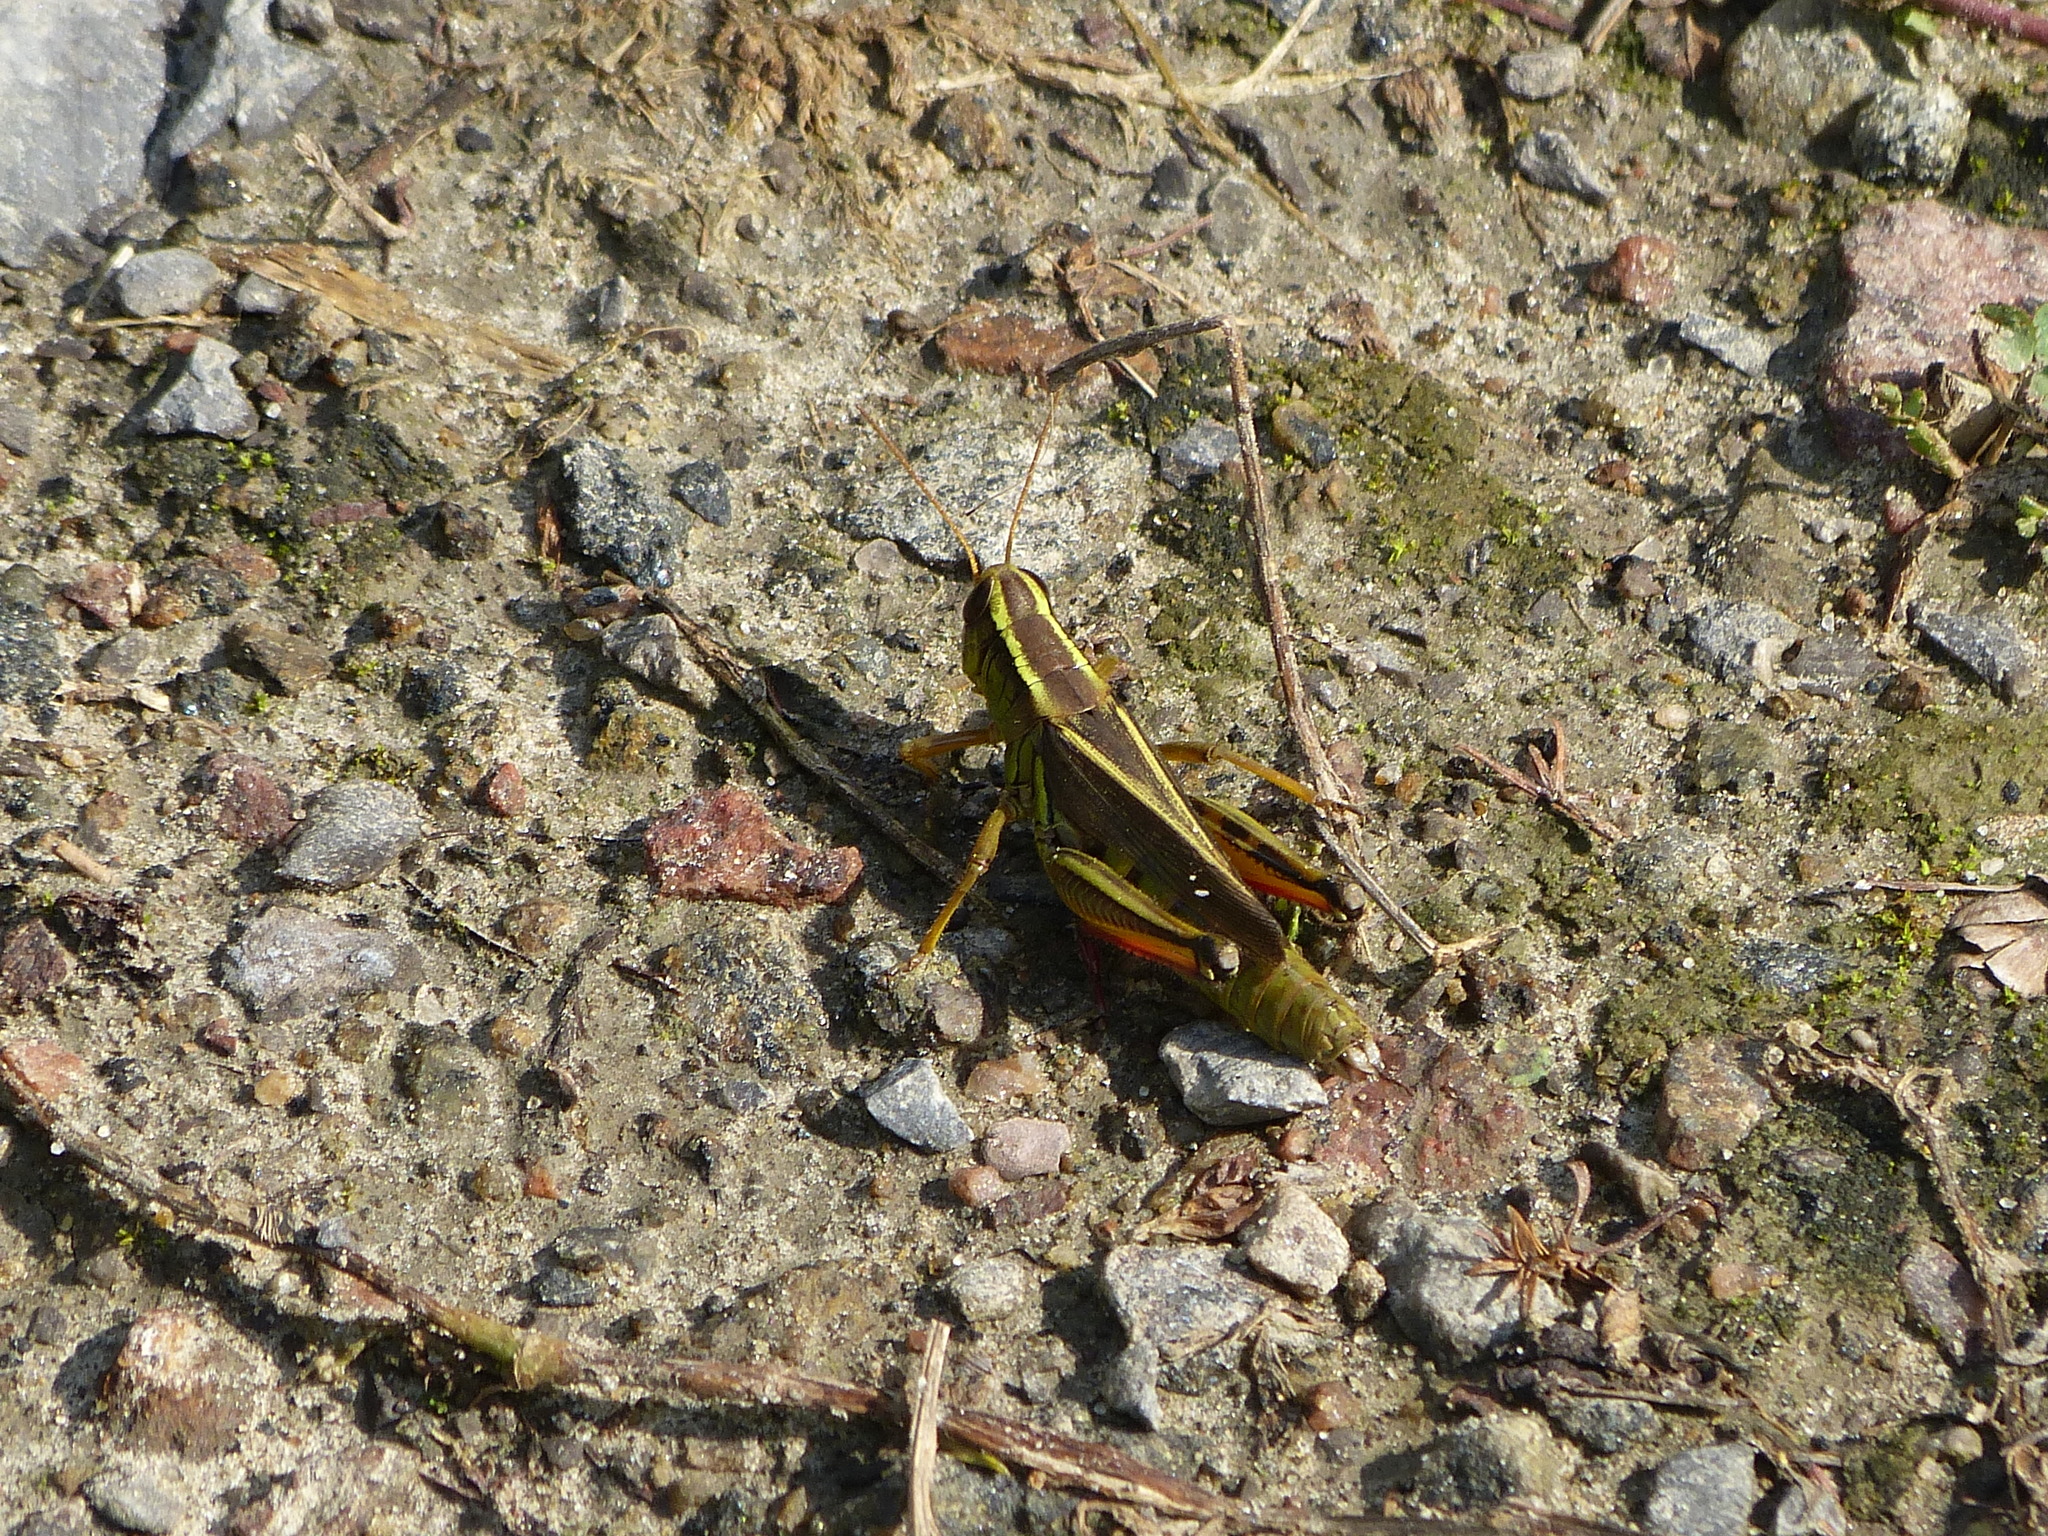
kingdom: Animalia
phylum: Arthropoda
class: Insecta
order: Orthoptera
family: Acrididae
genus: Melanoplus
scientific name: Melanoplus bivittatus
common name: Two-striped grasshopper
